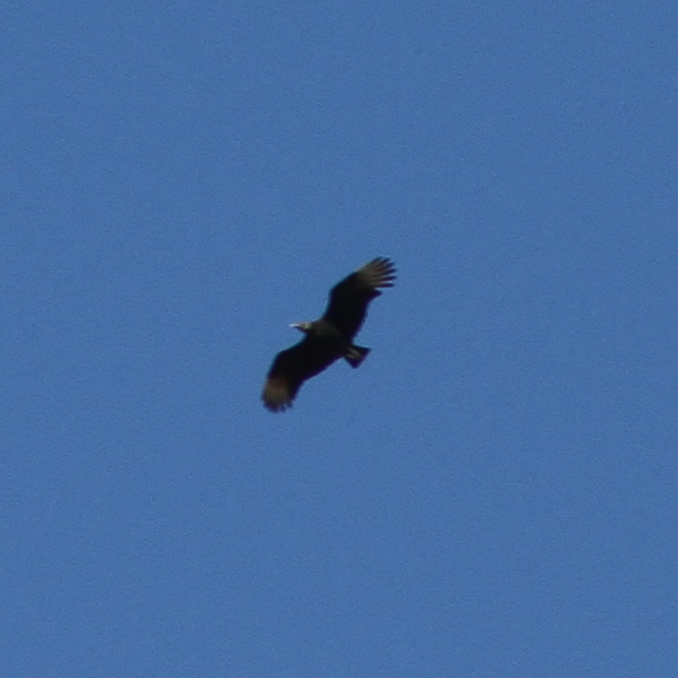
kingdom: Animalia
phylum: Chordata
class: Aves
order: Accipitriformes
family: Cathartidae
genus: Coragyps
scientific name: Coragyps atratus
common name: Black vulture
